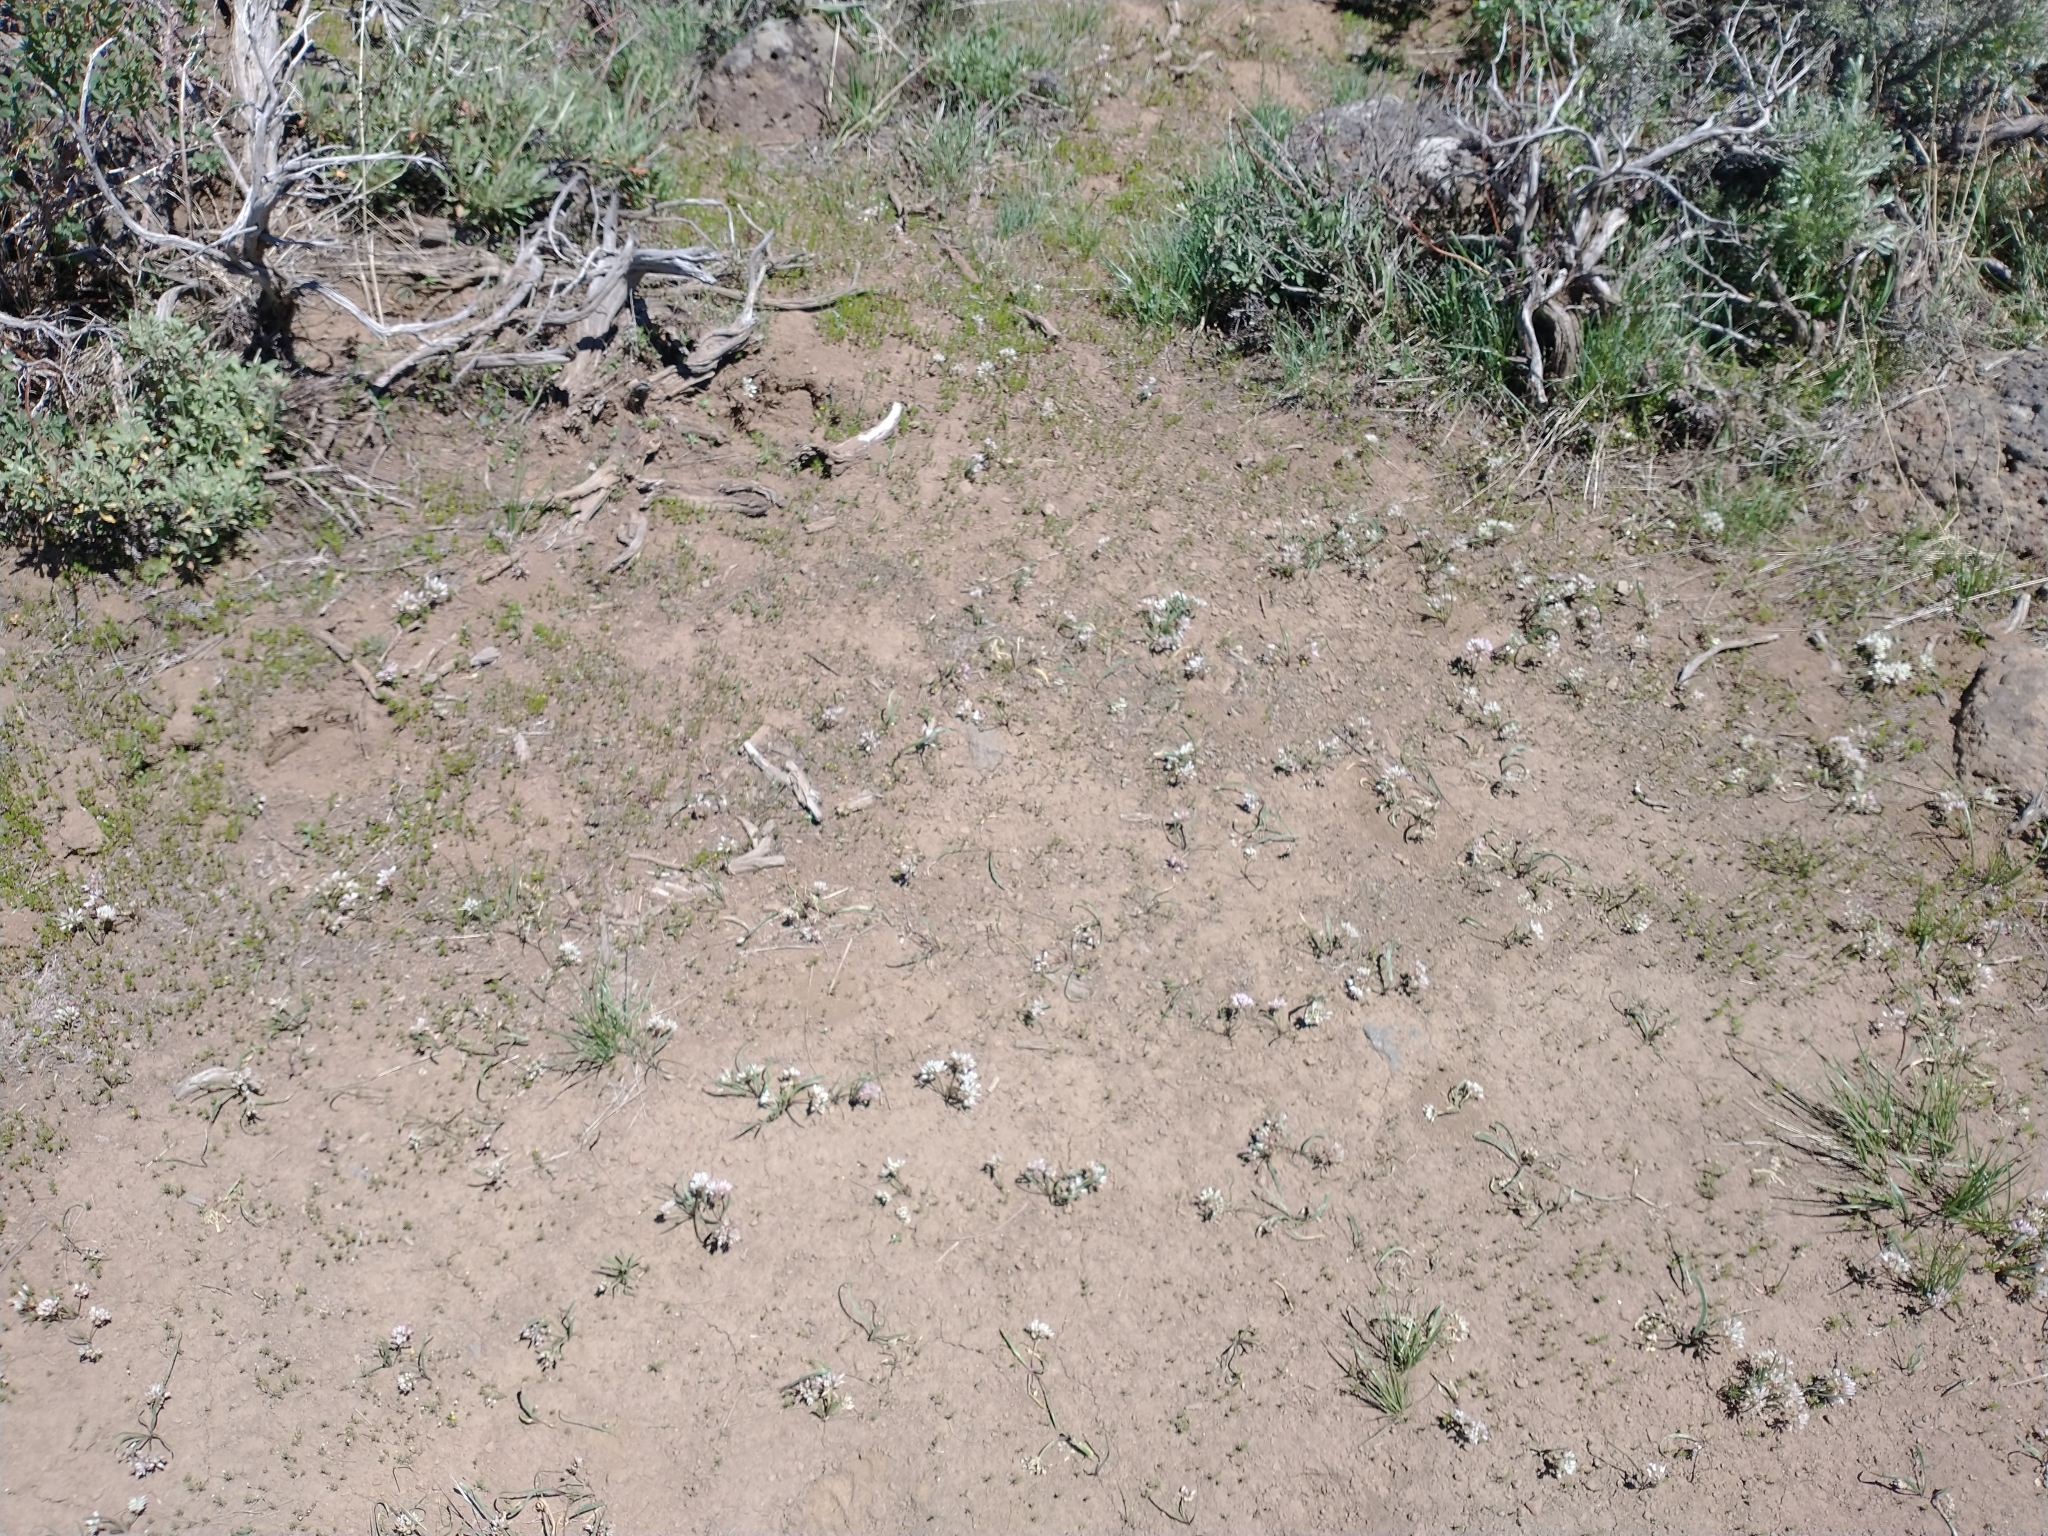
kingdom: Plantae
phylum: Tracheophyta
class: Liliopsida
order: Asparagales
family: Amaryllidaceae
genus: Allium
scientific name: Allium tolmiei
